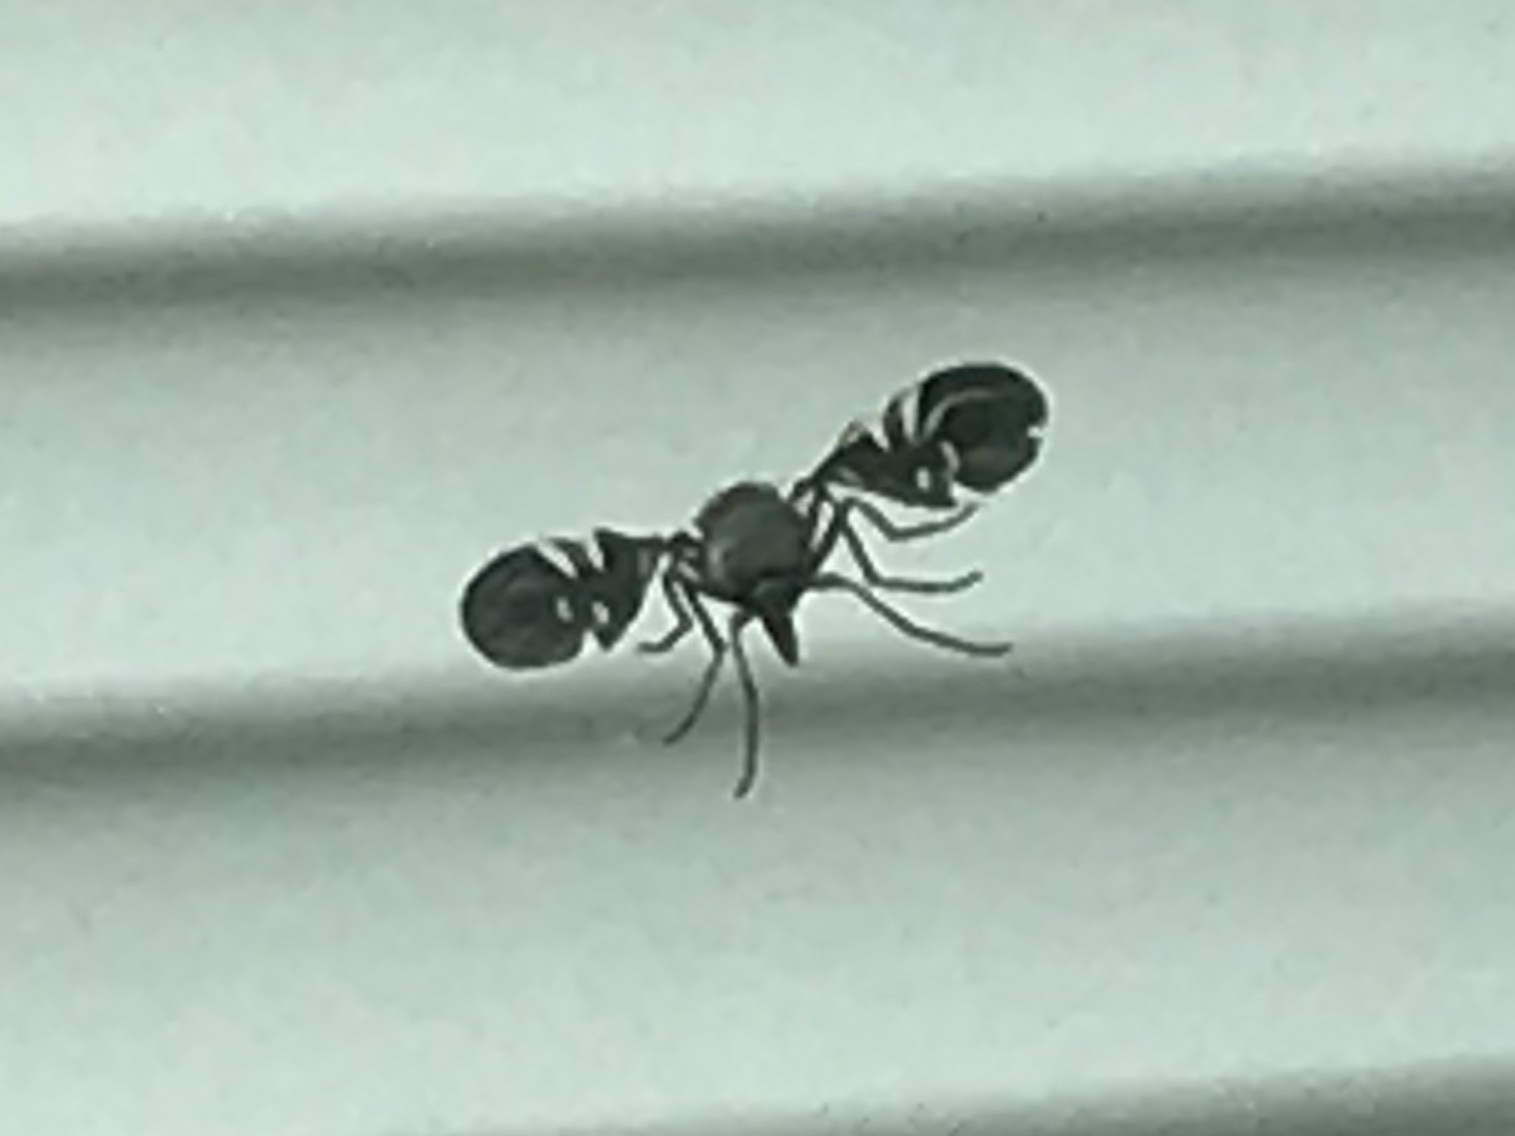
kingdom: Animalia
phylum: Arthropoda
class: Insecta
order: Diptera
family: Ulidiidae
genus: Delphinia
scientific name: Delphinia picta
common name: Common picture-winged fly
